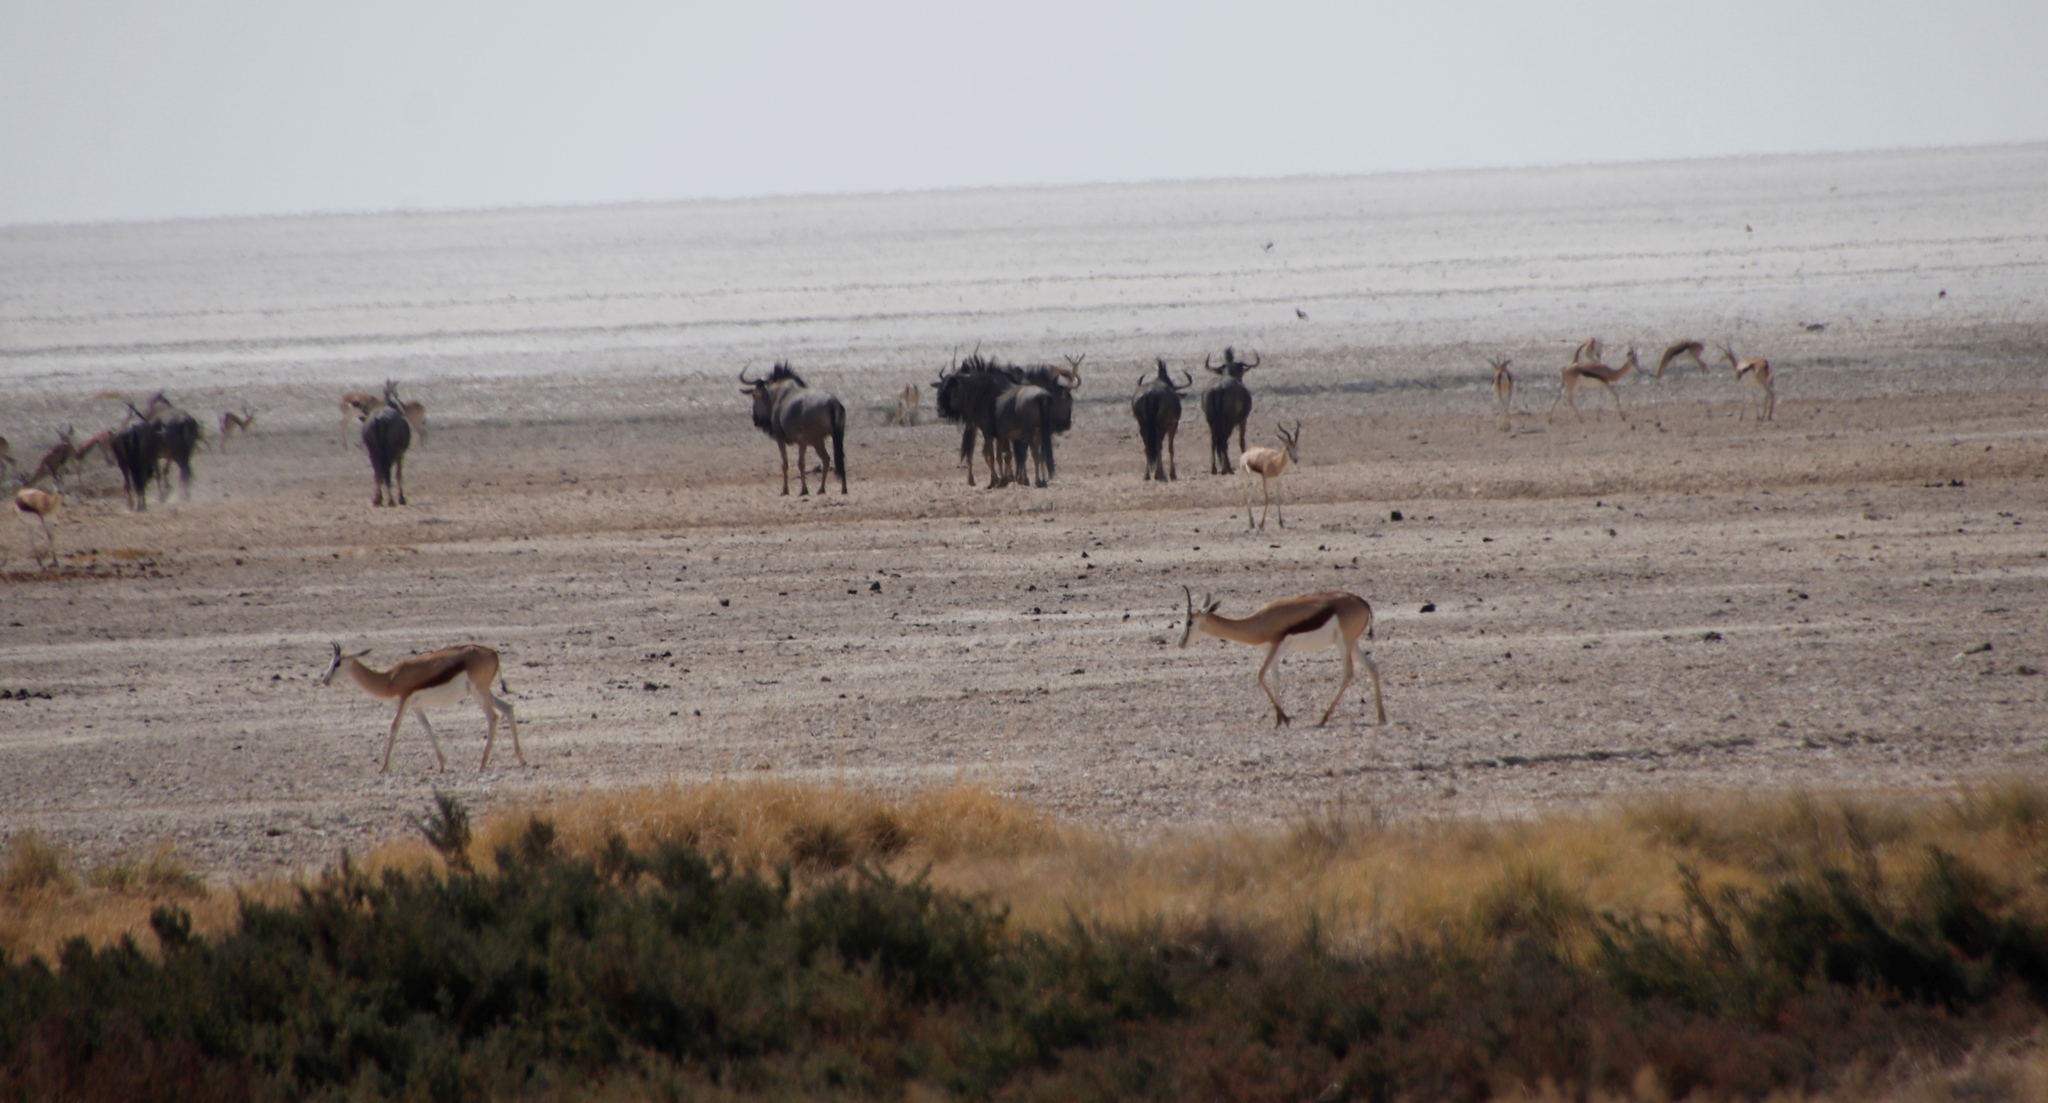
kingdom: Animalia
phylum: Chordata
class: Mammalia
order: Artiodactyla
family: Bovidae
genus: Antidorcas
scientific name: Antidorcas marsupialis
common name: Springbok
